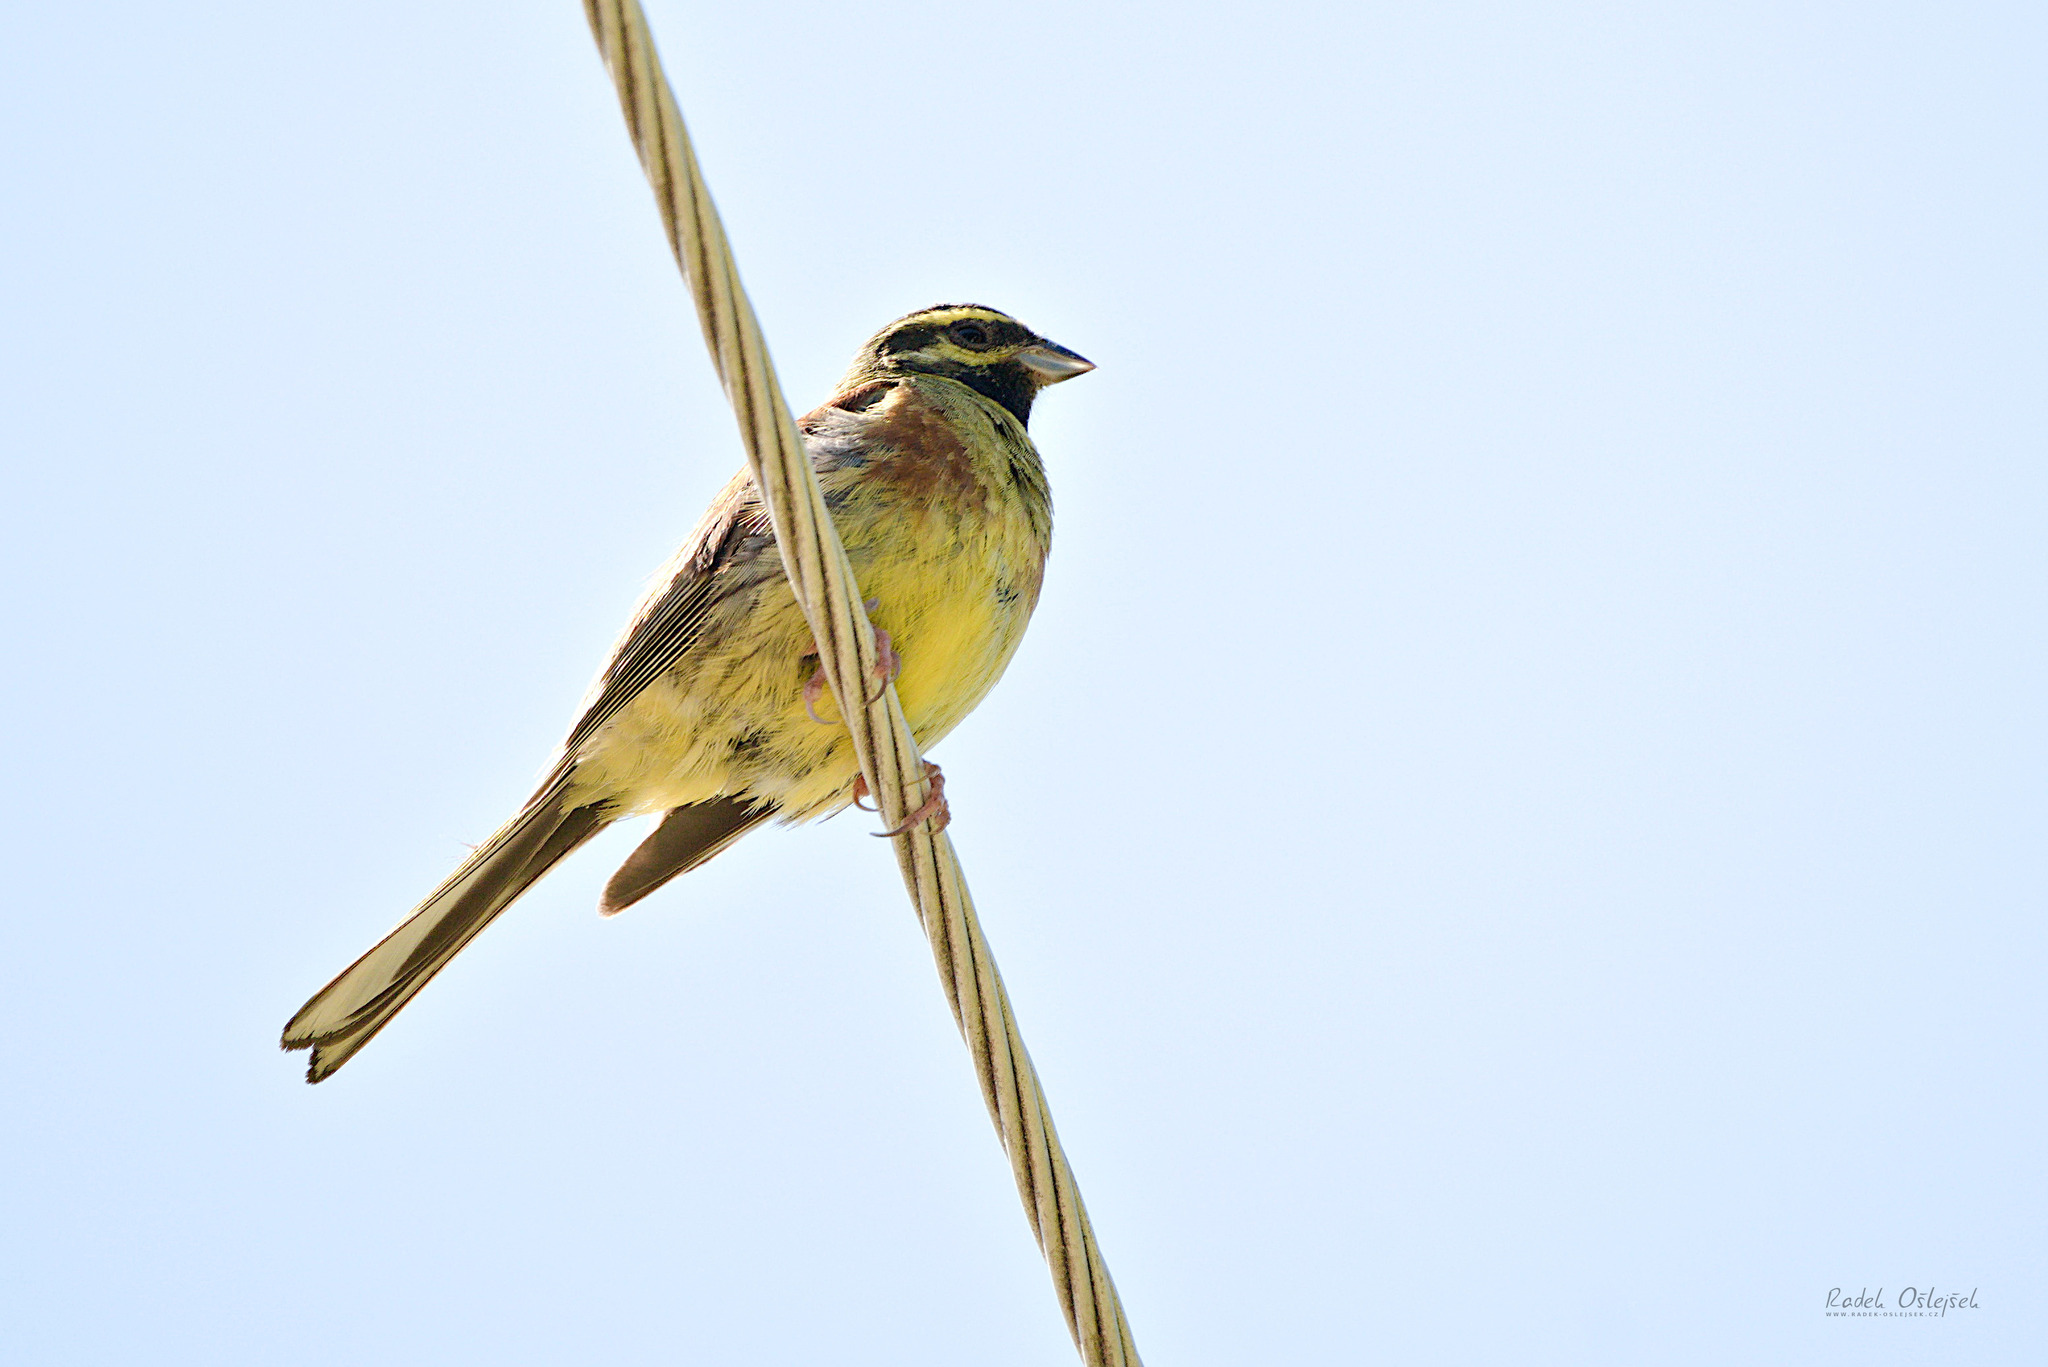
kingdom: Animalia
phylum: Chordata
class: Aves
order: Passeriformes
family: Emberizidae
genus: Emberiza
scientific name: Emberiza cirlus
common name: Cirl bunting
